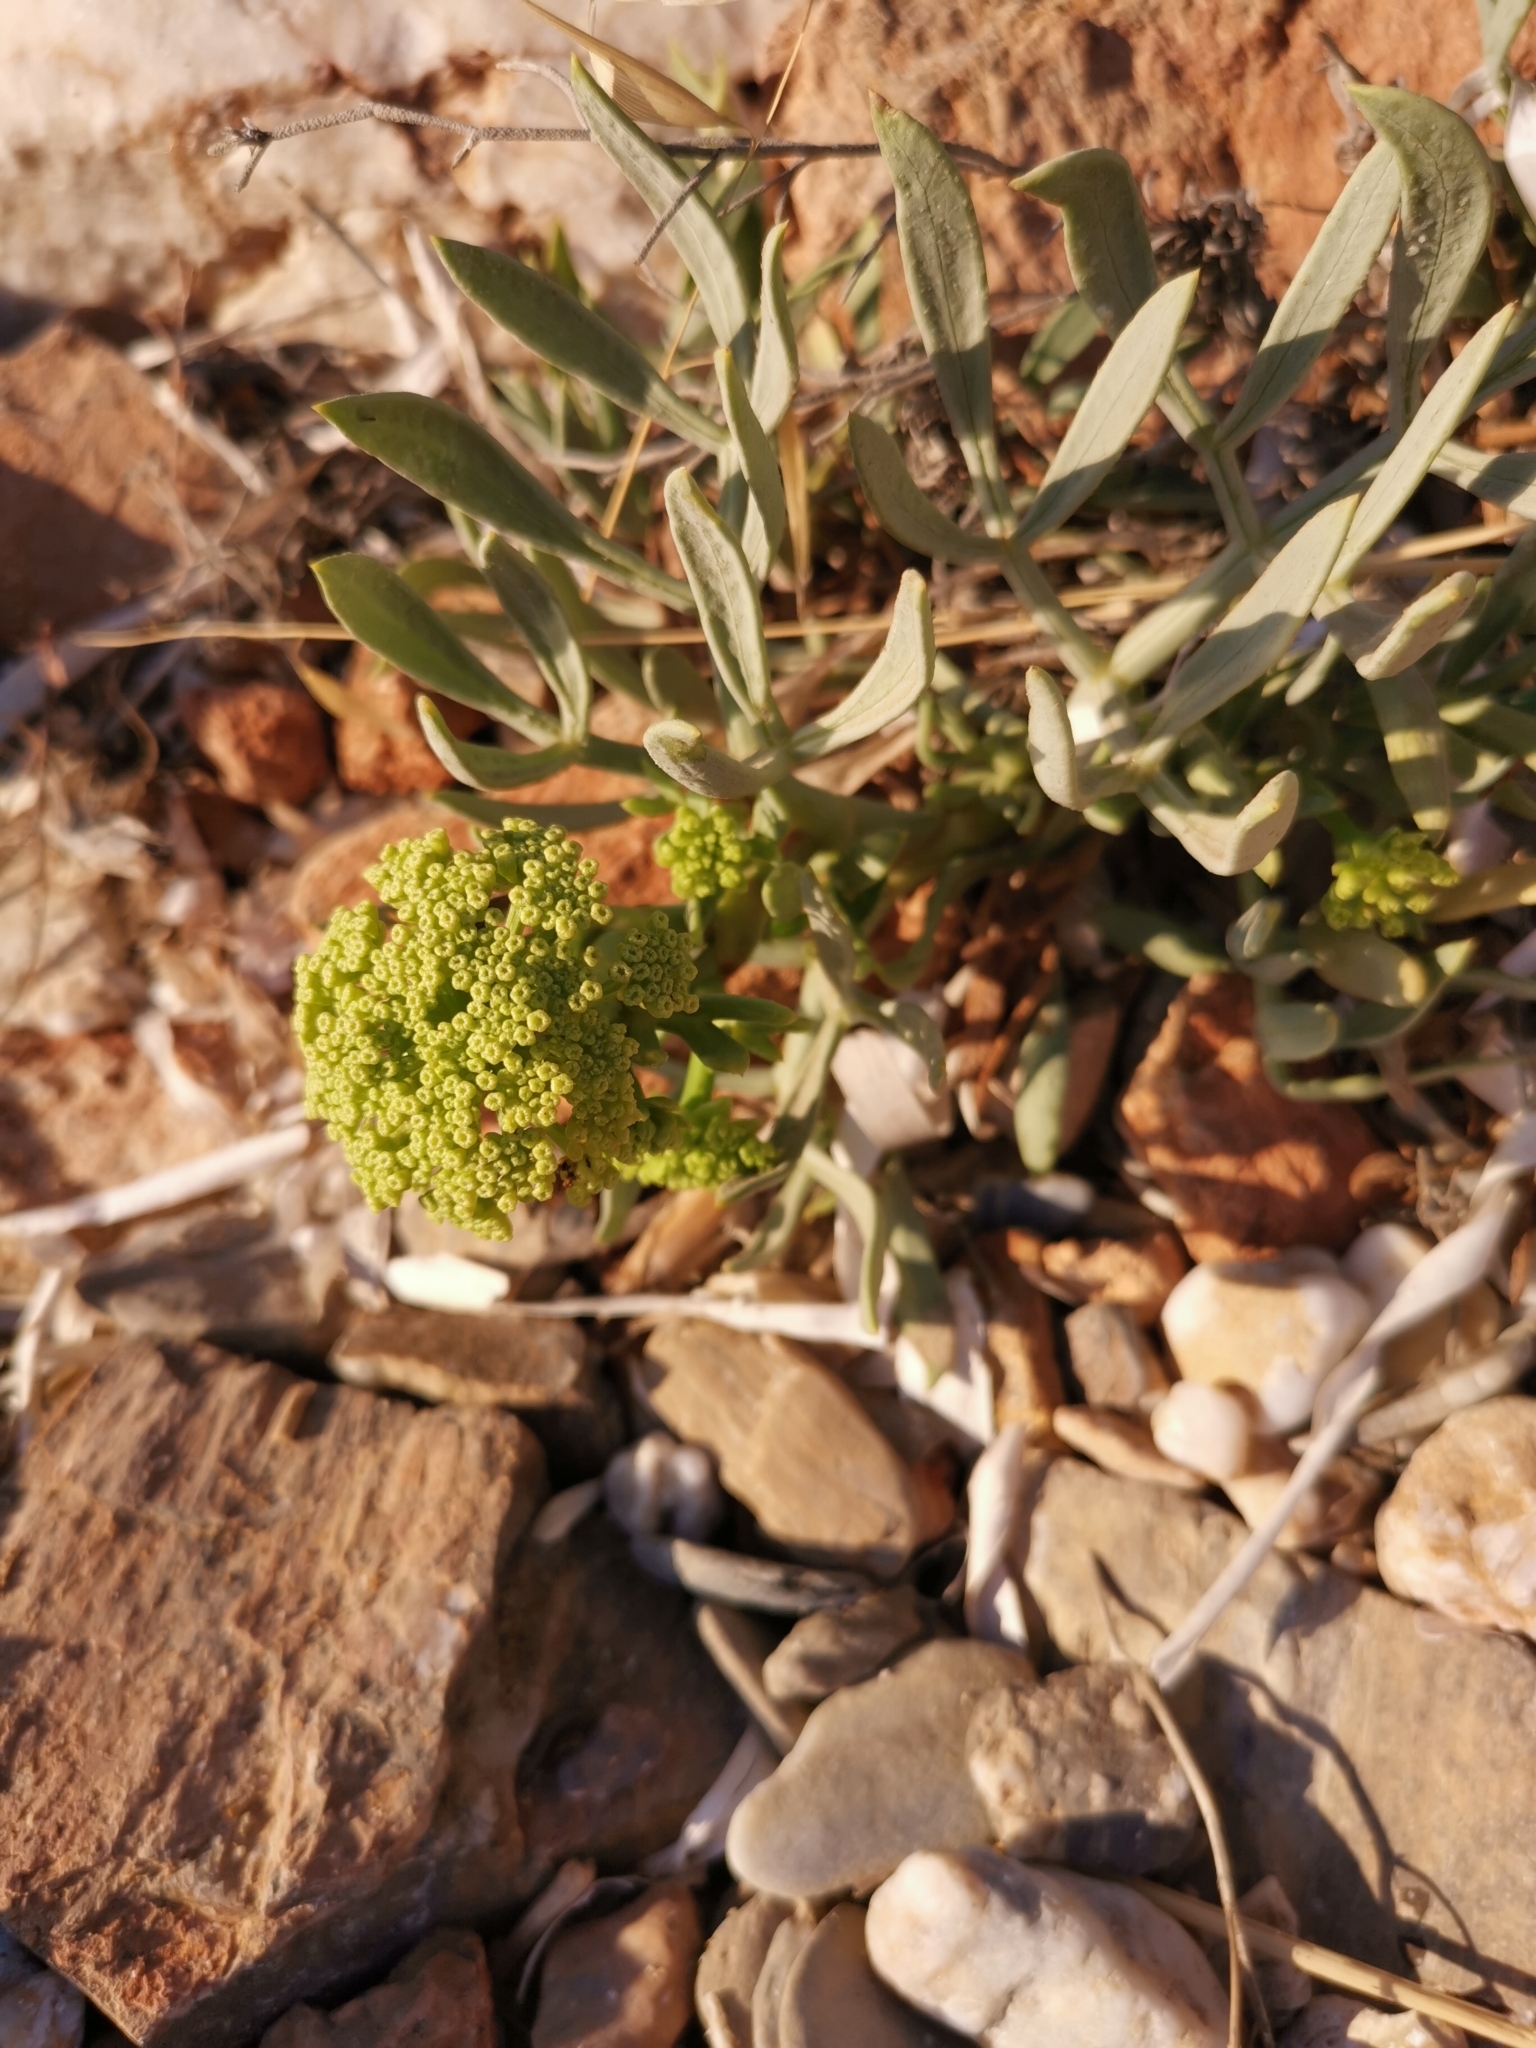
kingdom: Plantae
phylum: Tracheophyta
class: Magnoliopsida
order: Apiales
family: Apiaceae
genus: Crithmum
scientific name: Crithmum maritimum
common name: Rock samphire
